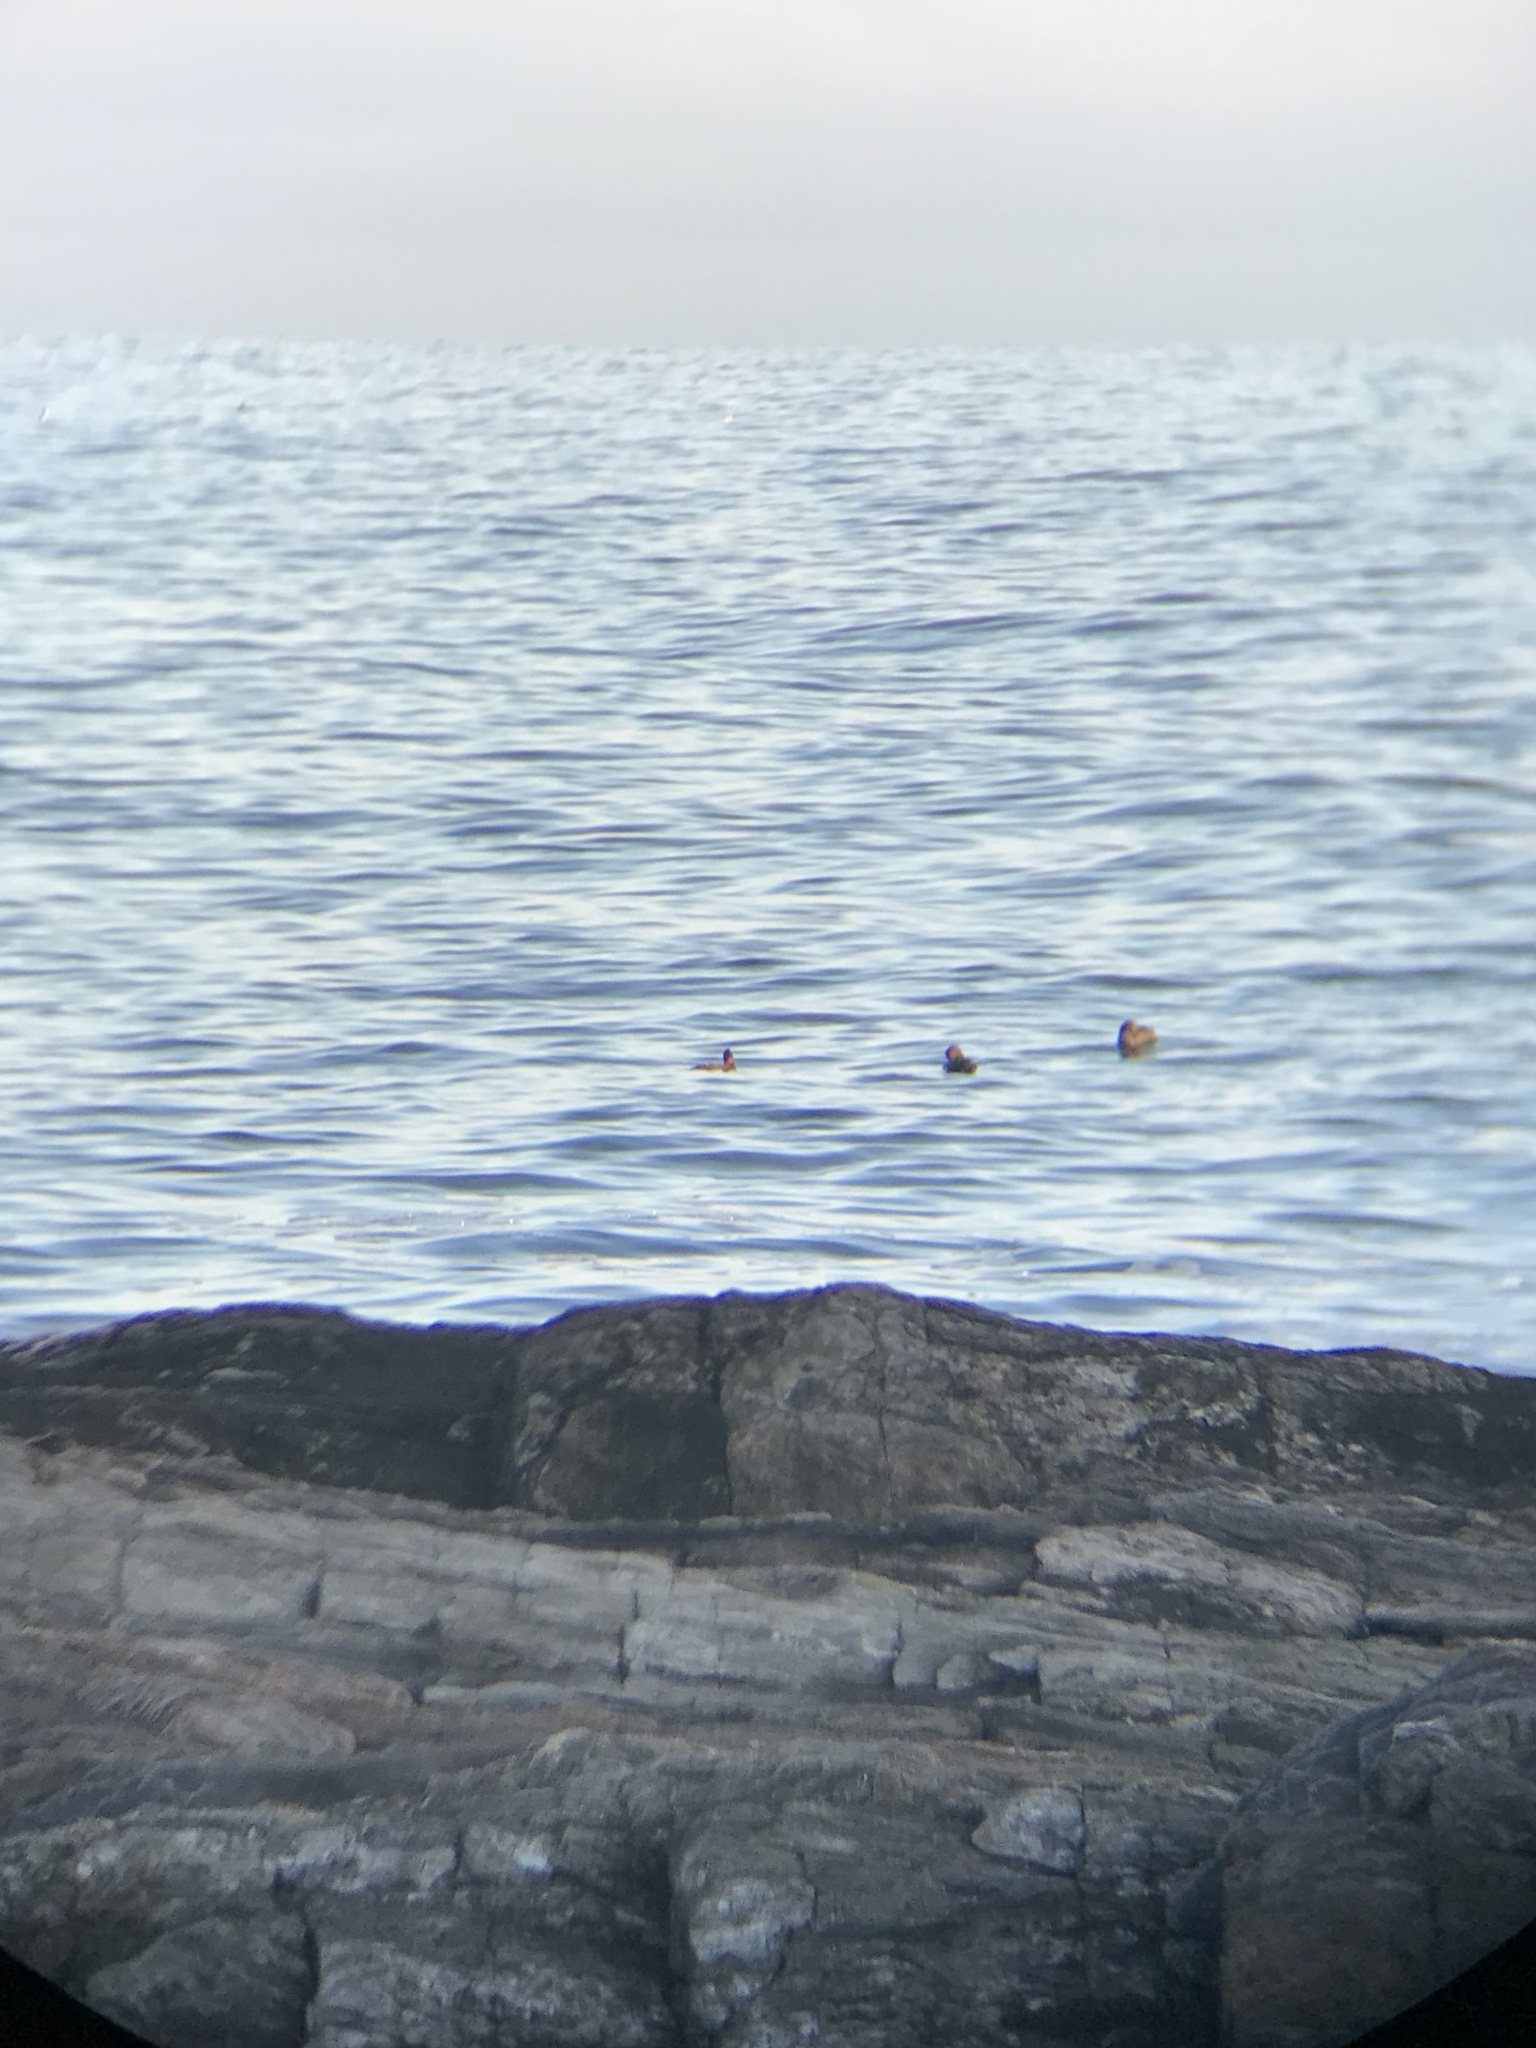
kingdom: Animalia
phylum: Chordata
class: Aves
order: Anseriformes
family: Anatidae
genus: Somateria
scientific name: Somateria mollissima
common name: Common eider
